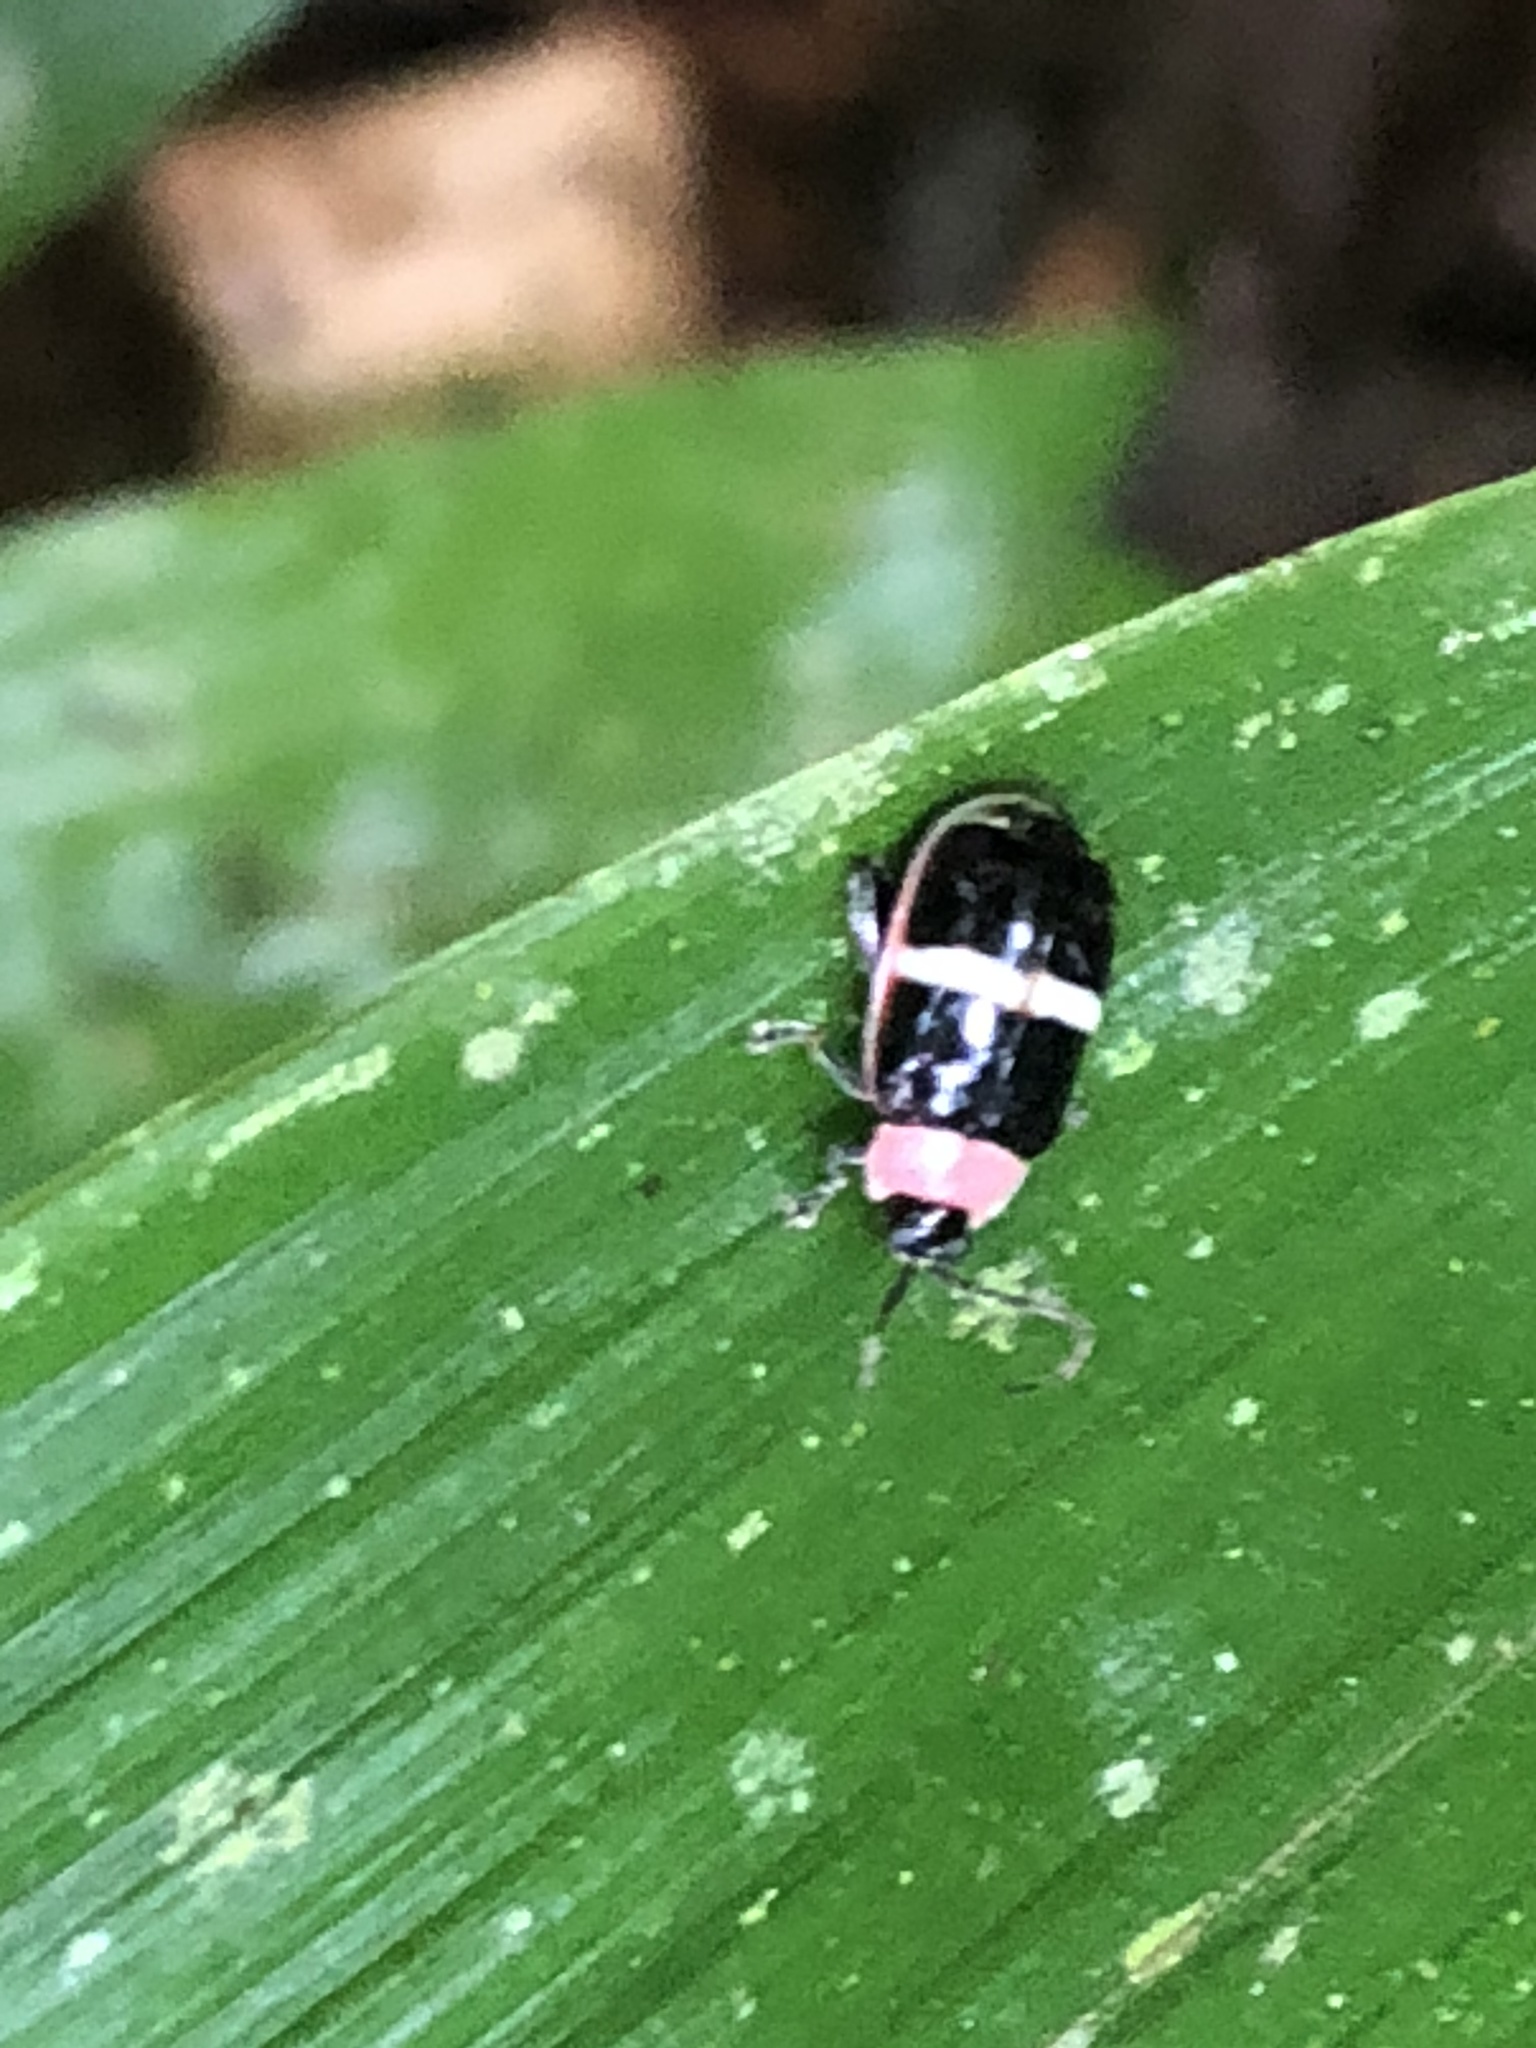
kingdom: Animalia
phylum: Arthropoda
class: Insecta
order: Coleoptera
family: Chrysomelidae
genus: Alagoasa
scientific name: Alagoasa
